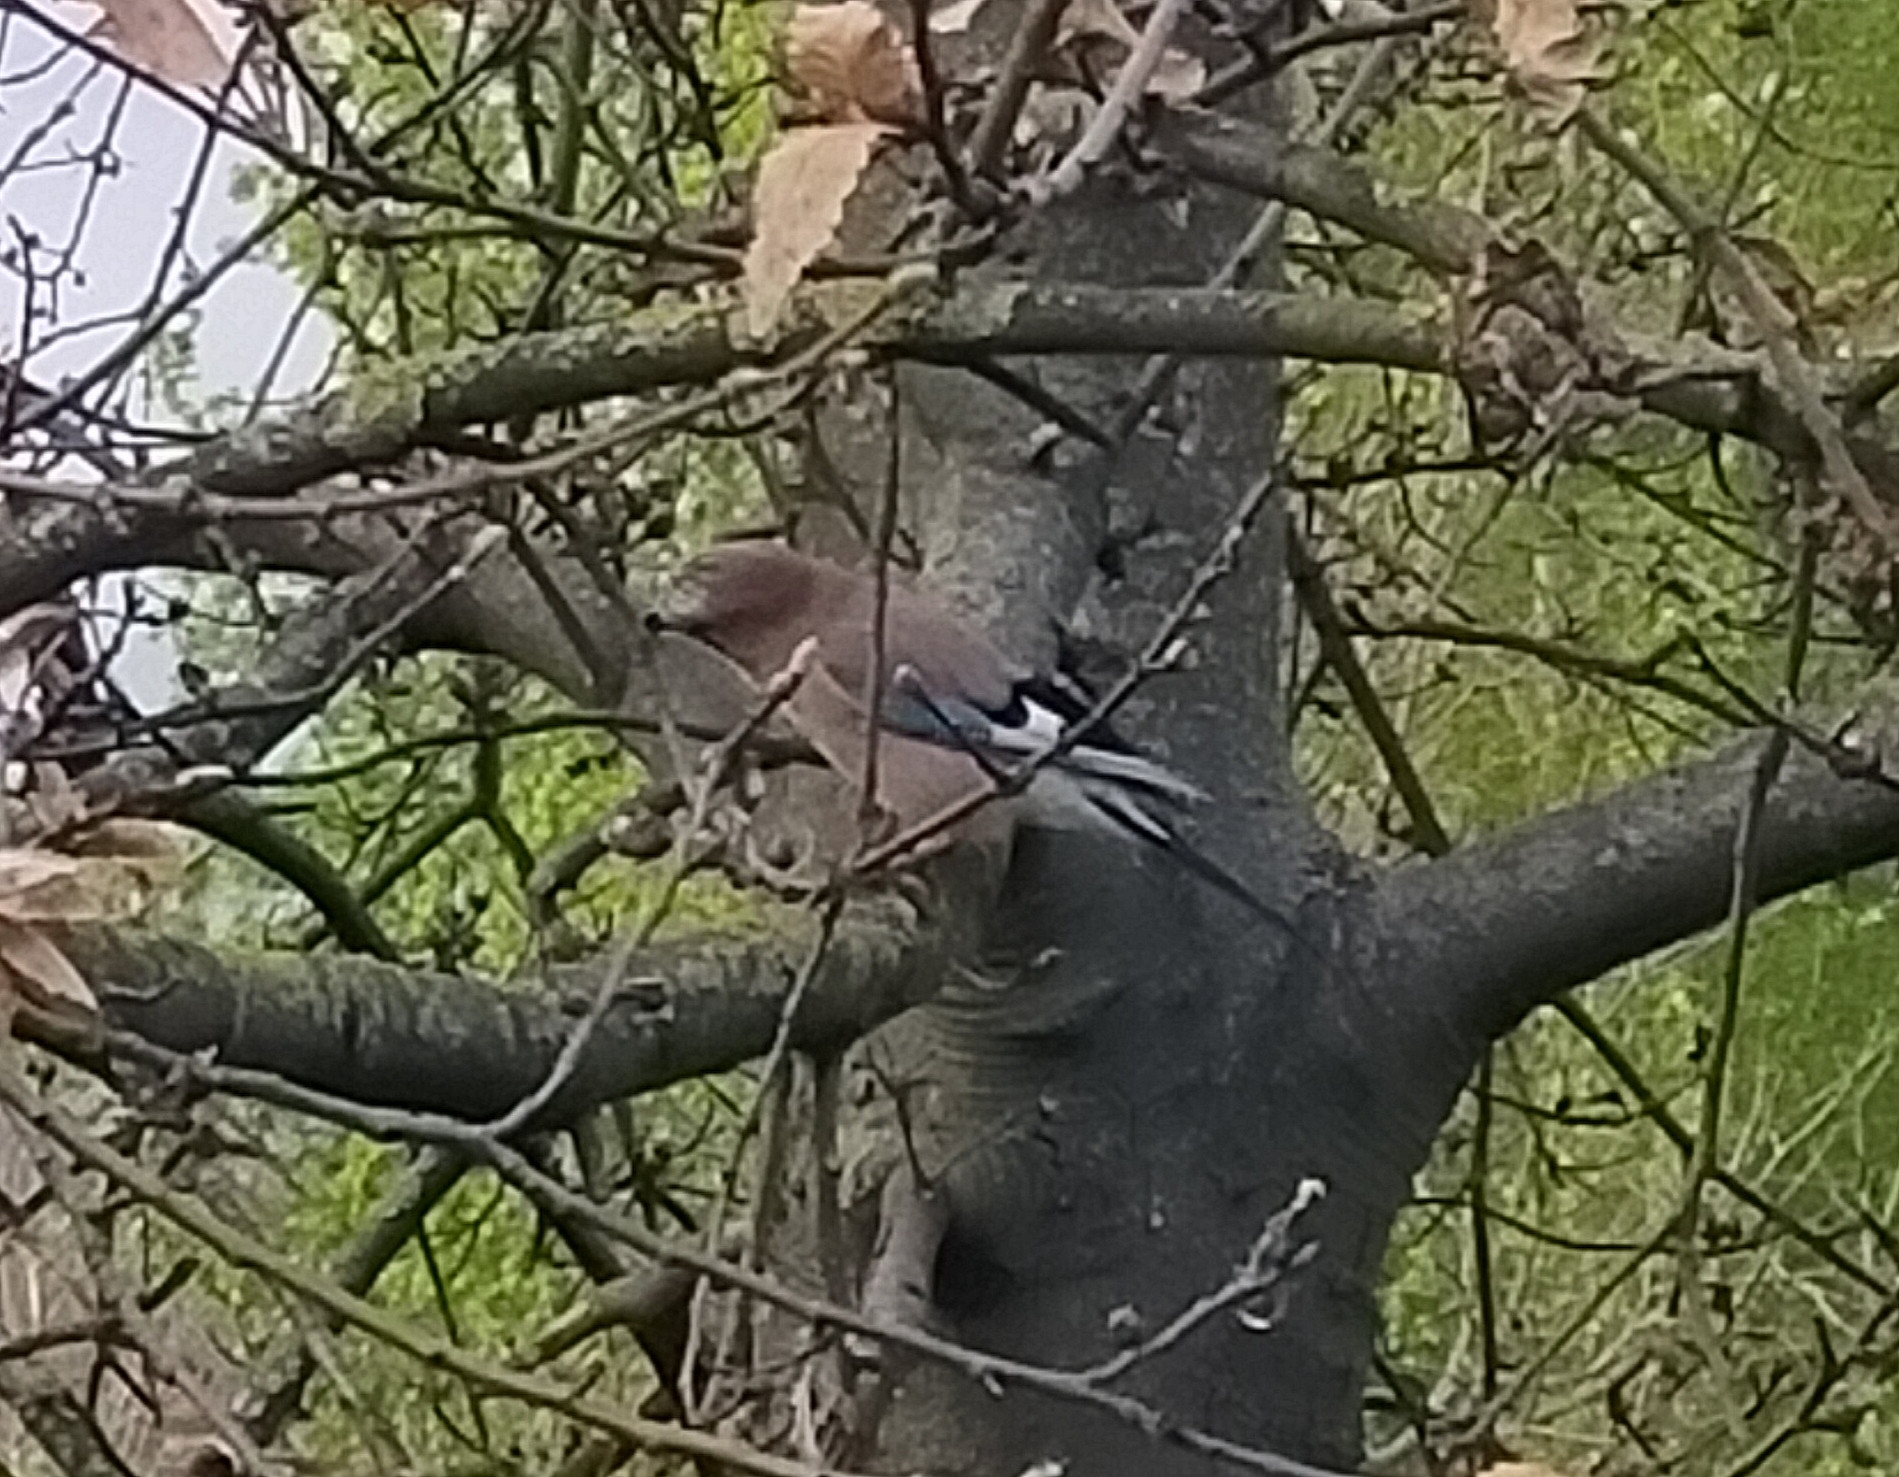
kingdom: Animalia
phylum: Chordata
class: Aves
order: Passeriformes
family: Corvidae
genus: Garrulus
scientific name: Garrulus glandarius
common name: Eurasian jay
